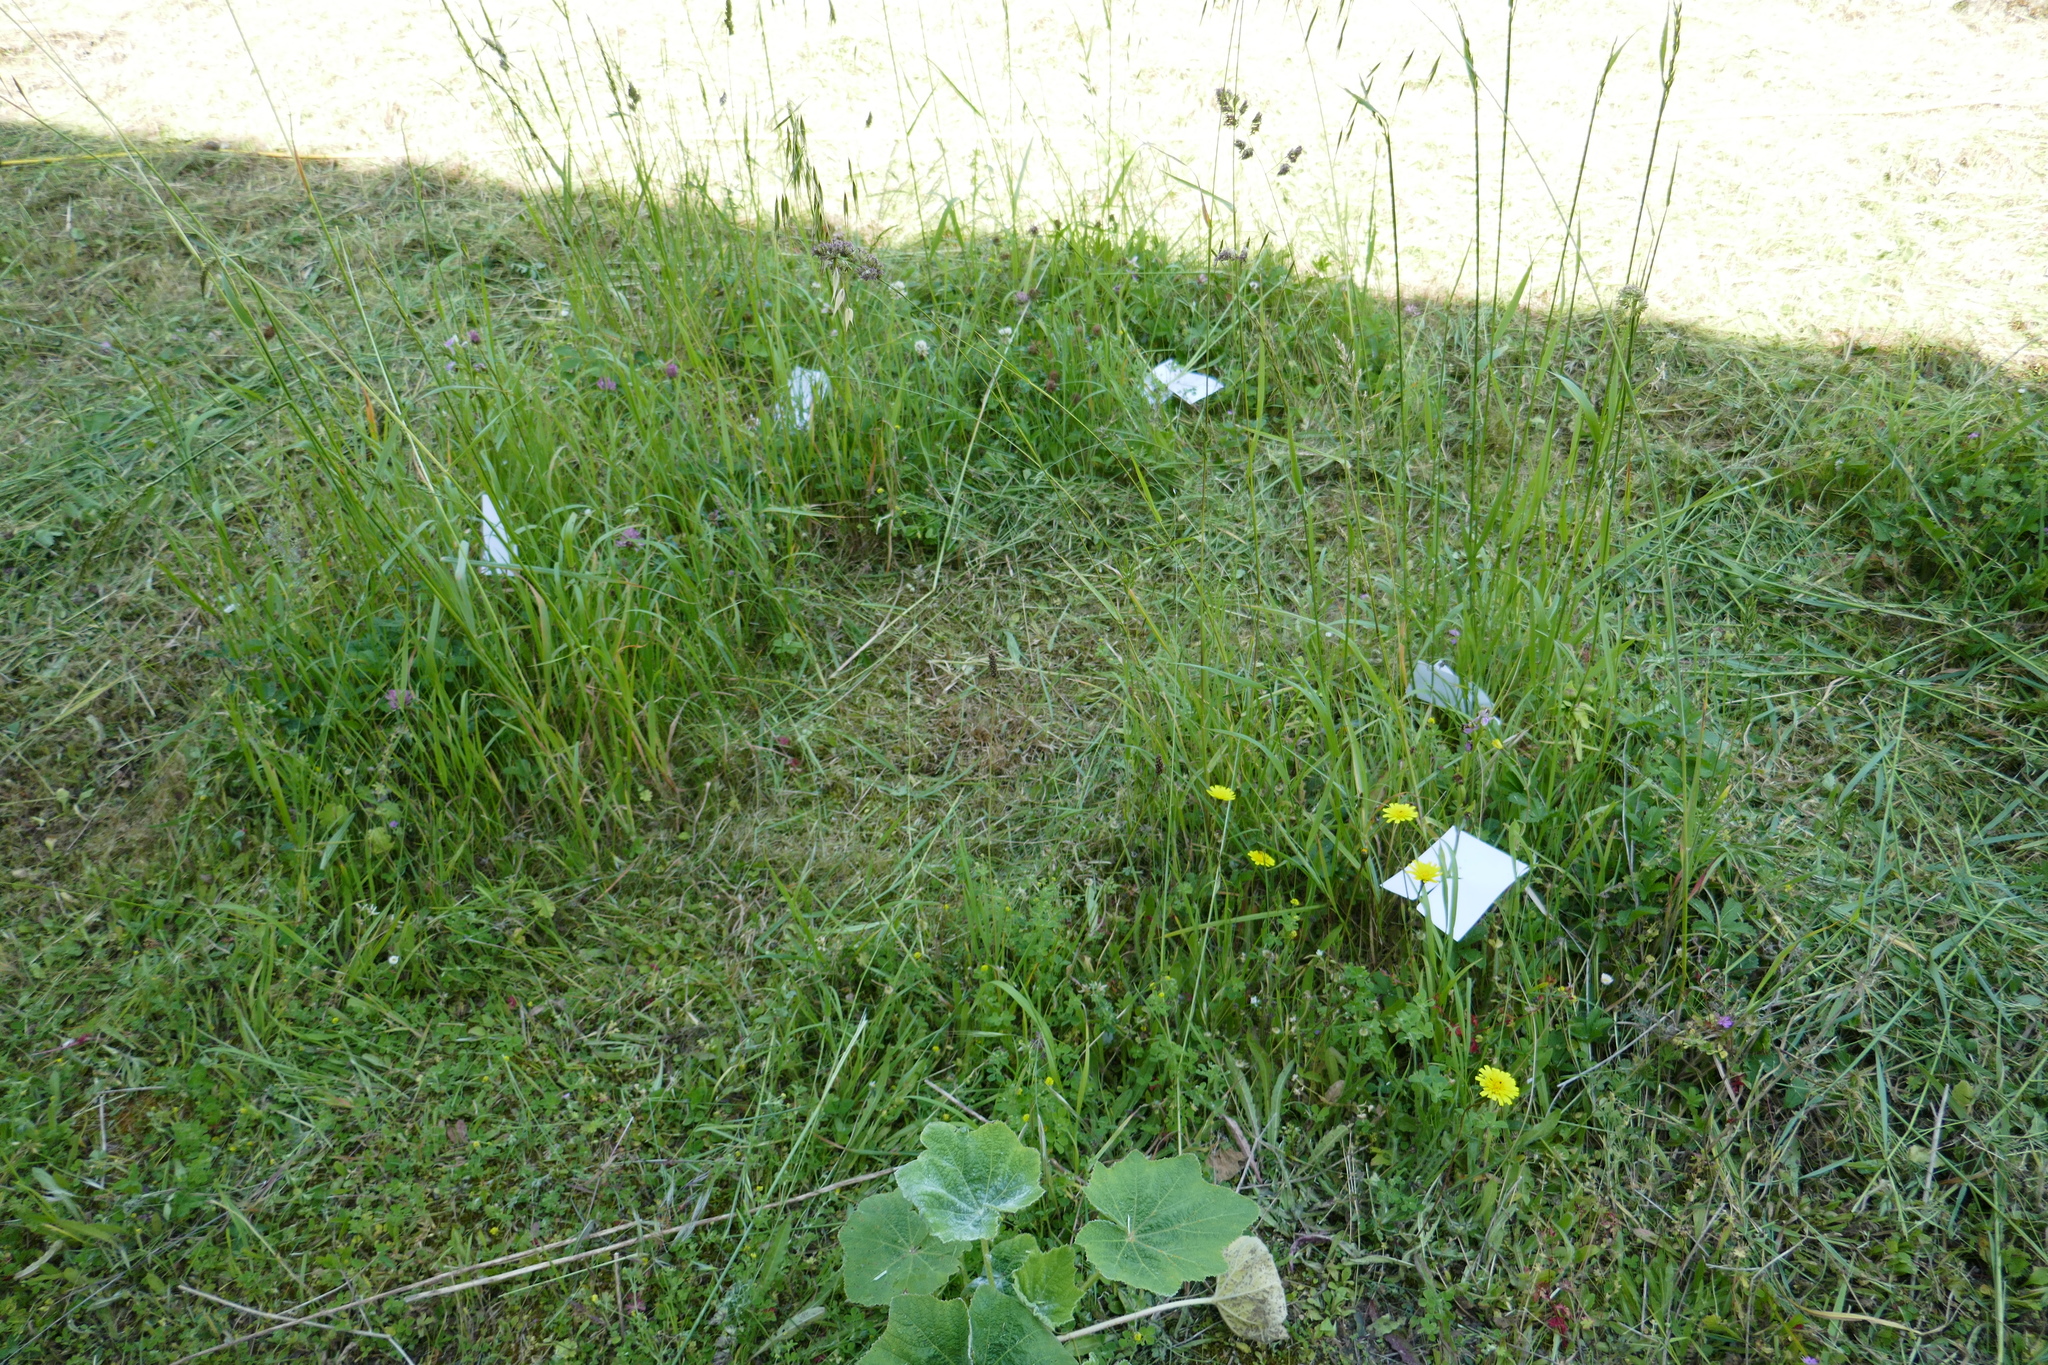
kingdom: Plantae
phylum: Tracheophyta
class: Liliopsida
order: Asparagales
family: Orchidaceae
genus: Ophrys
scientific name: Ophrys apifera
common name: Bee orchid
